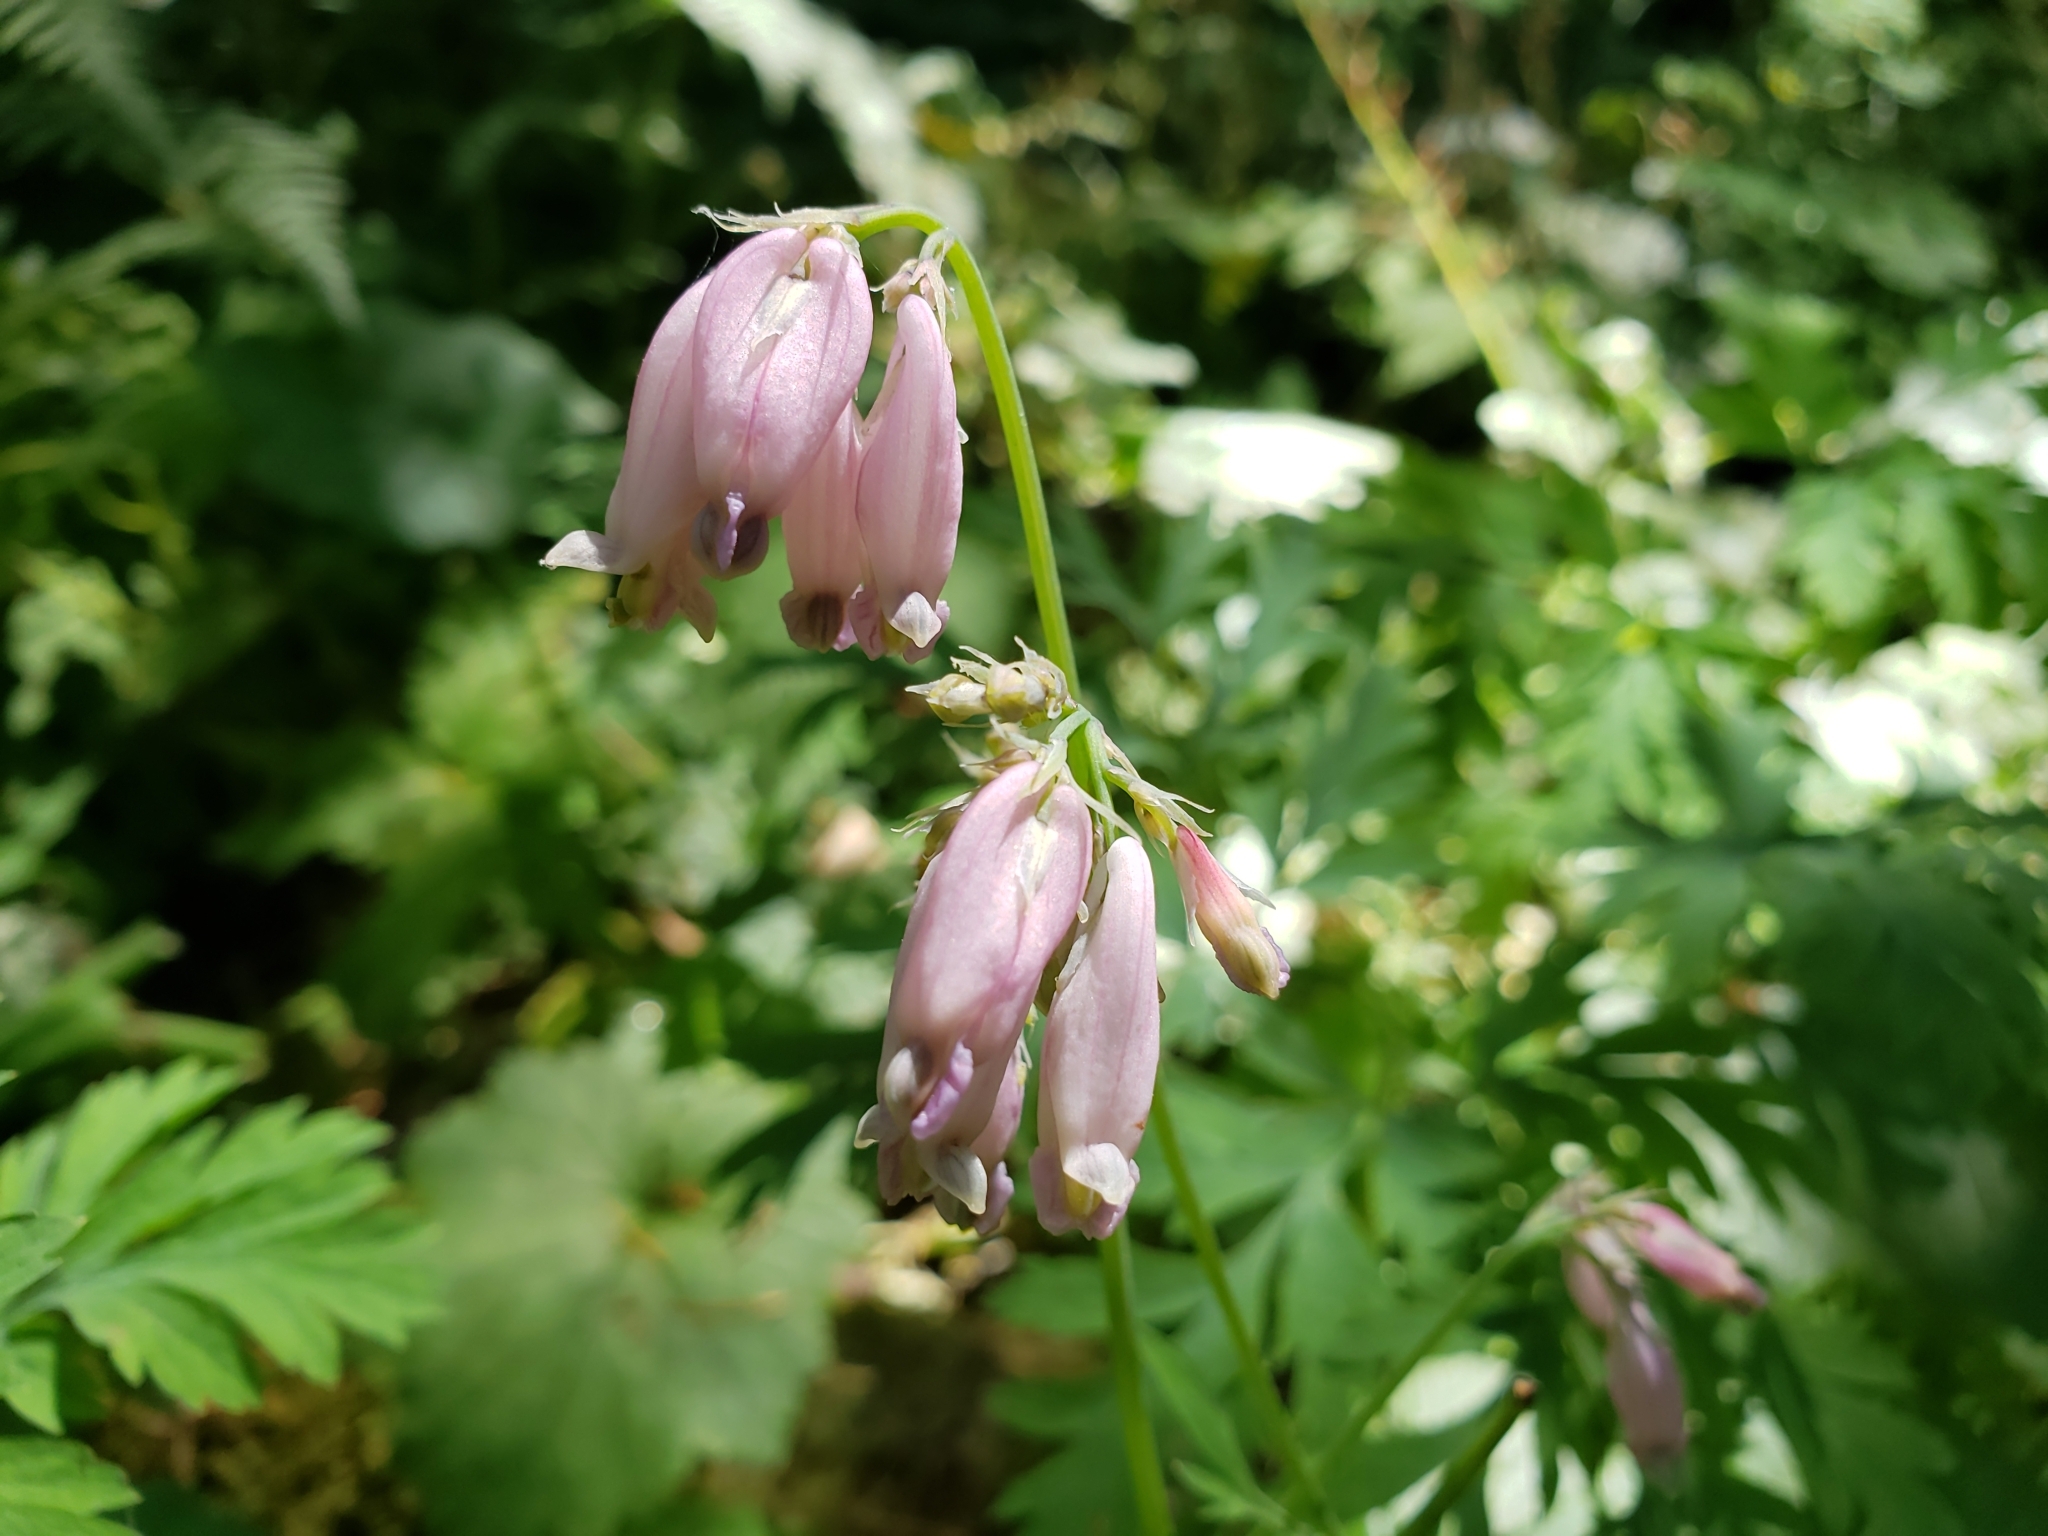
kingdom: Plantae
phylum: Tracheophyta
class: Magnoliopsida
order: Ranunculales
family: Papaveraceae
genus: Dicentra
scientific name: Dicentra formosa
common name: Bleeding-heart
